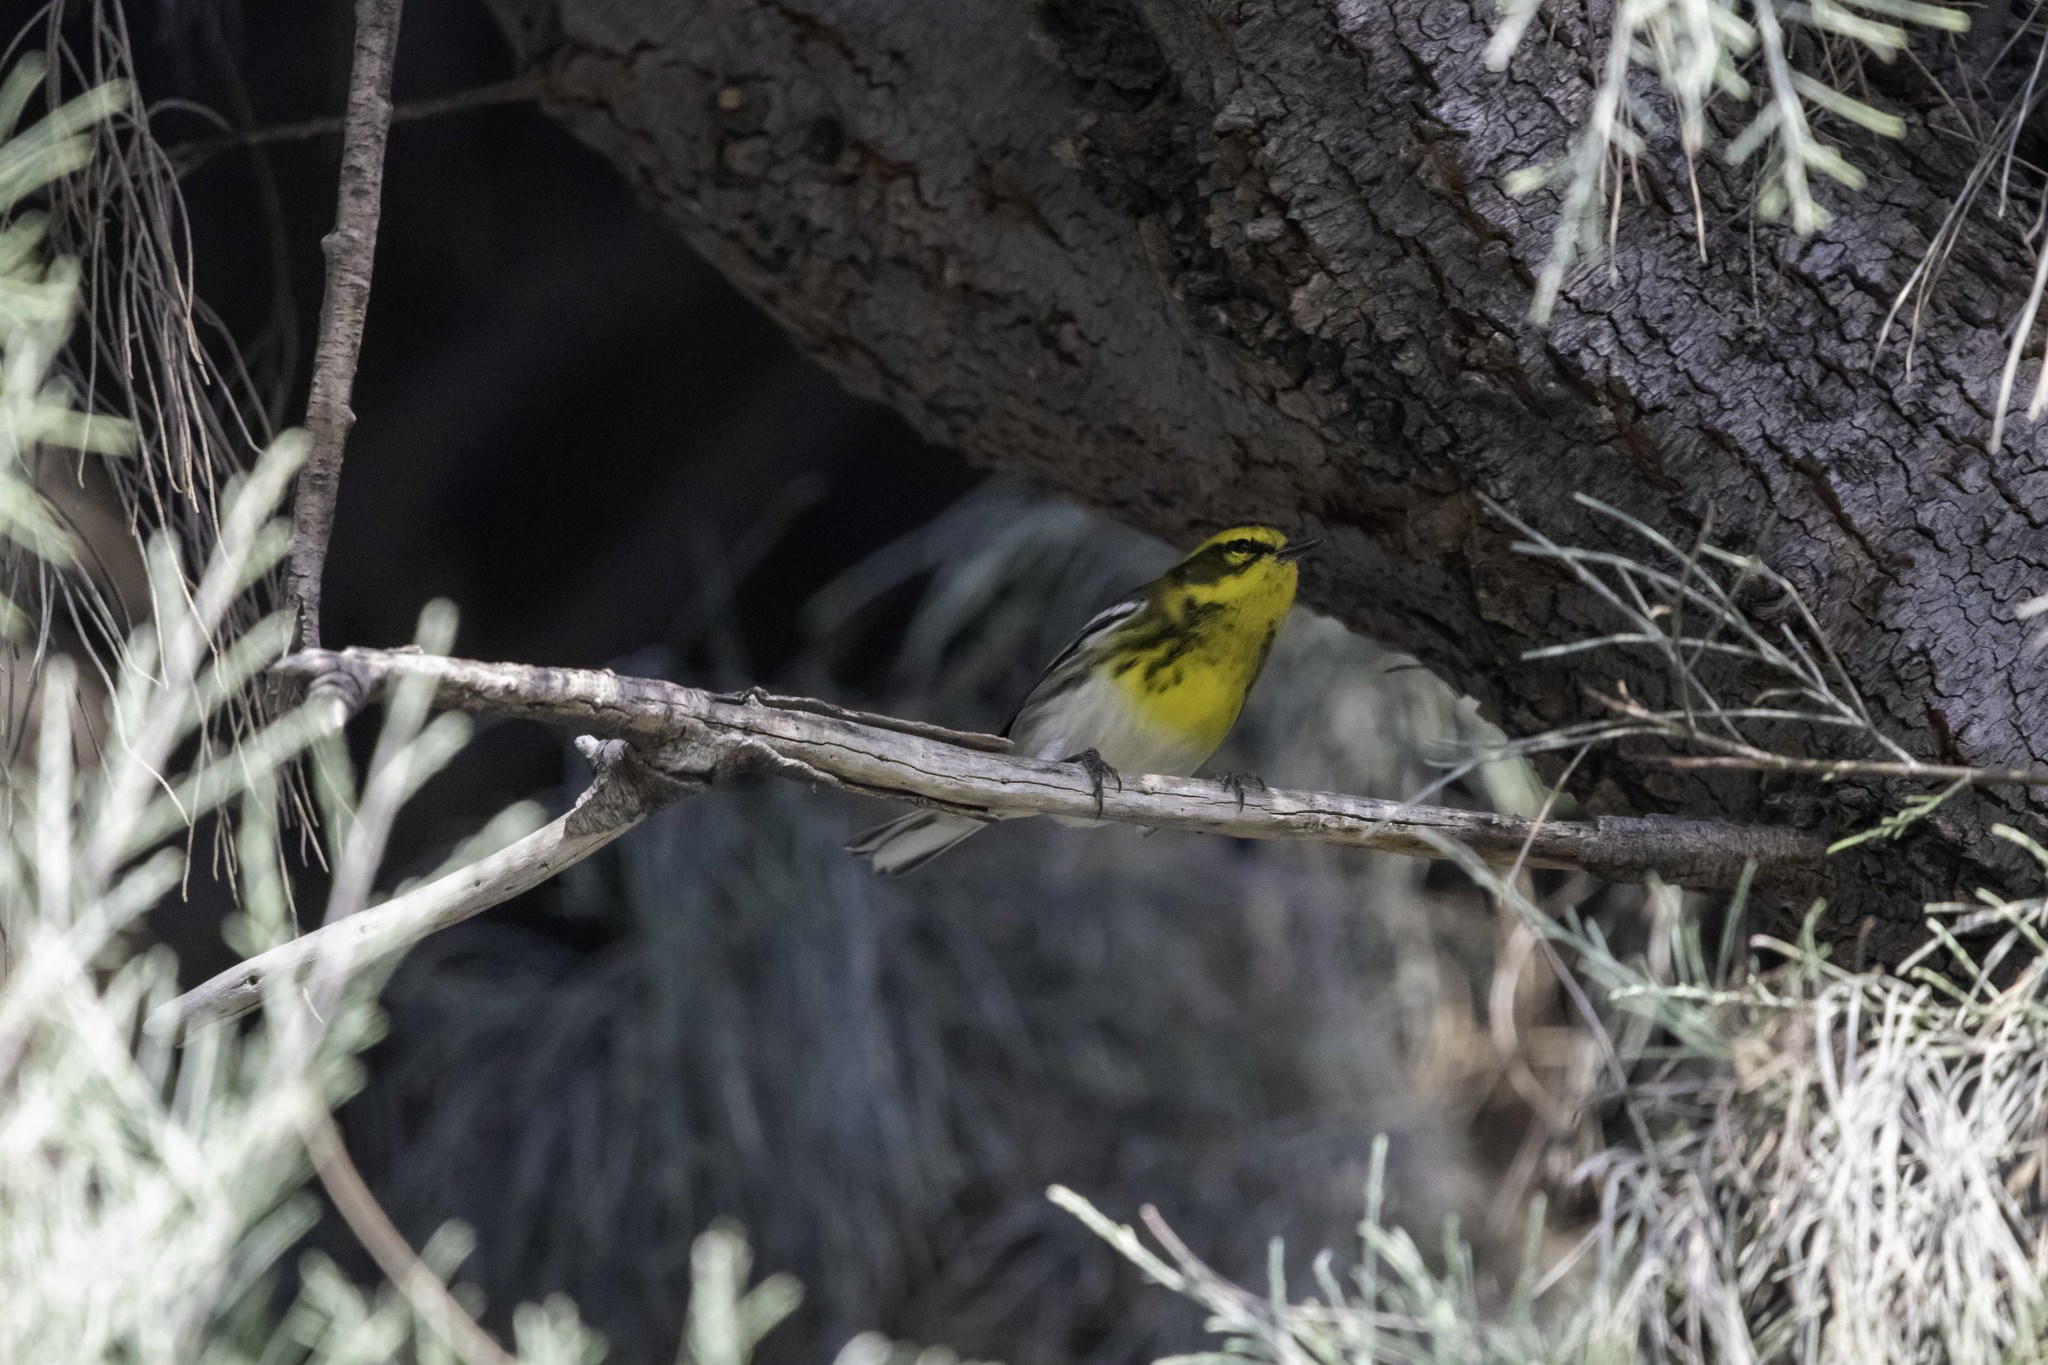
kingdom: Animalia
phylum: Chordata
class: Aves
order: Passeriformes
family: Parulidae
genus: Setophaga
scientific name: Setophaga townsendi
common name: Townsend's warbler
